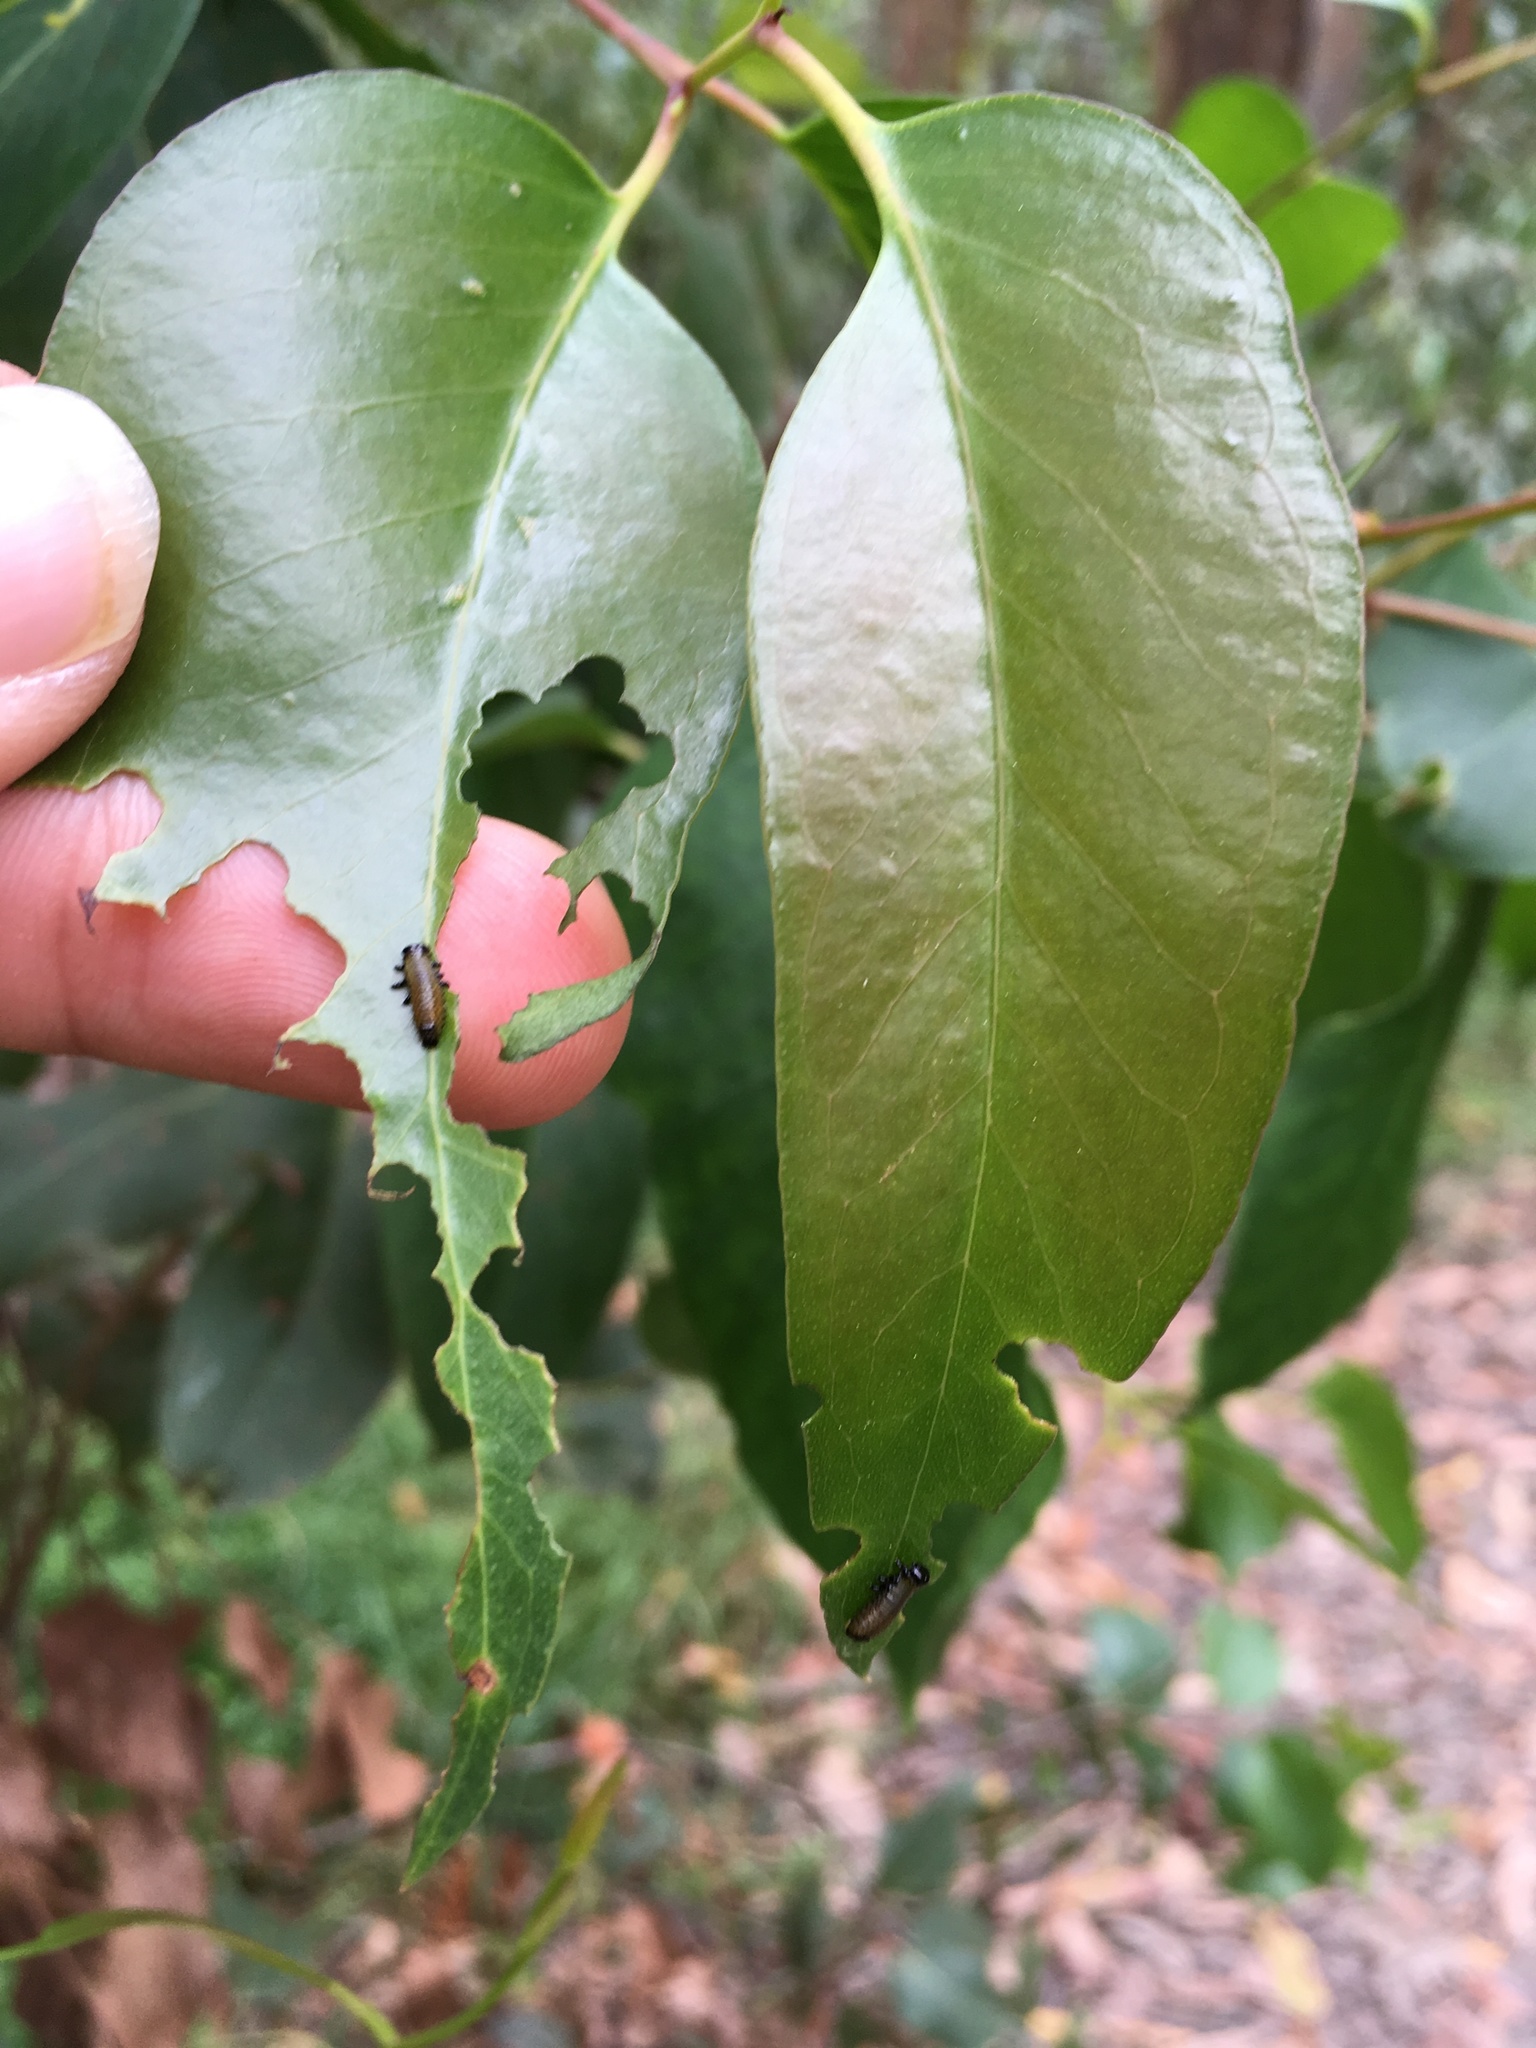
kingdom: Animalia
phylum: Arthropoda
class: Insecta
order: Coleoptera
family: Chrysomelidae
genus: Paropsis
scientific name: Paropsis charybdis
